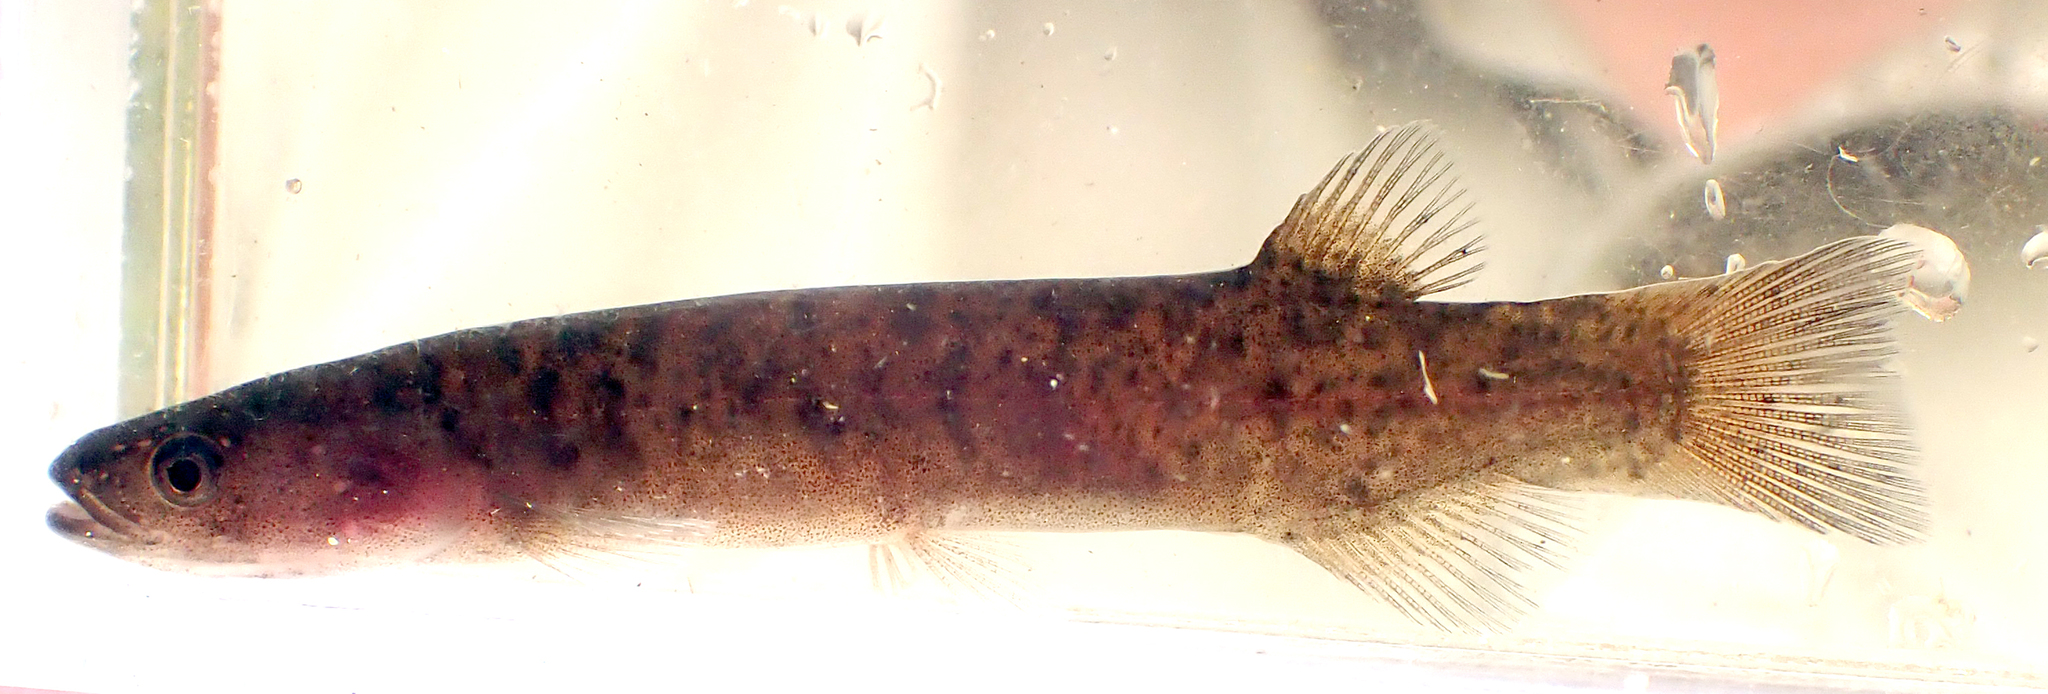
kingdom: Animalia
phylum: Chordata
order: Osmeriformes
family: Galaxiidae
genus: Neochanna
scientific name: Neochanna rekohua
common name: Chathams galaxias
